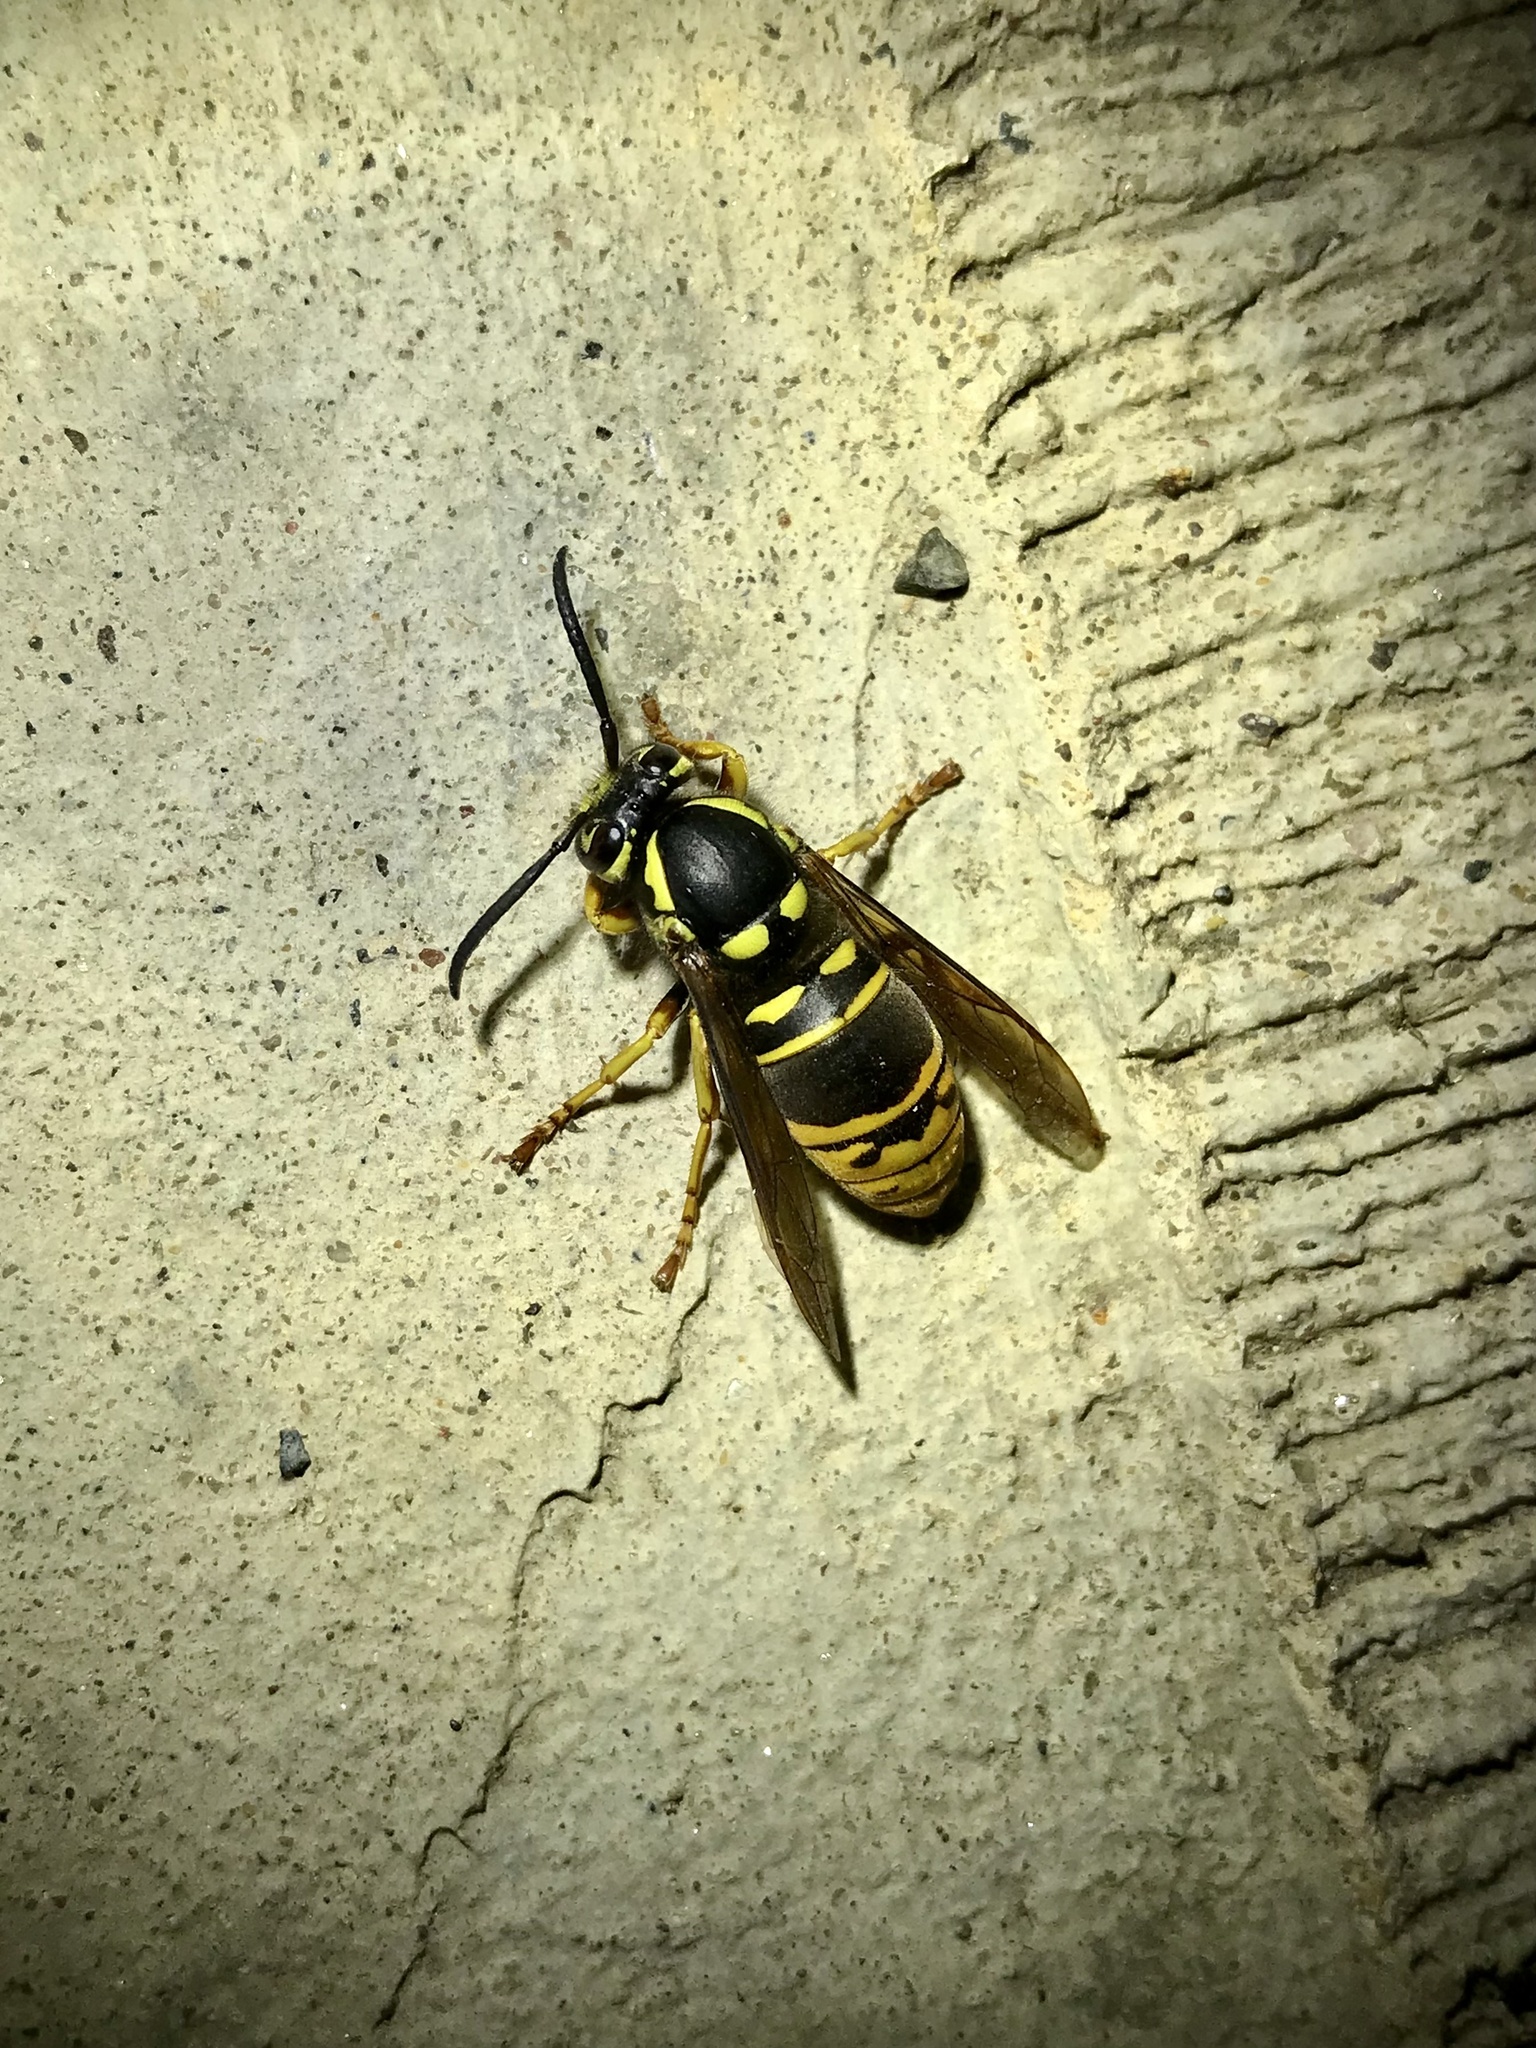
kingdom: Animalia
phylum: Arthropoda
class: Insecta
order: Hymenoptera
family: Vespidae
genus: Vespula
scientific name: Vespula vidua
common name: Widow yellowjacket
